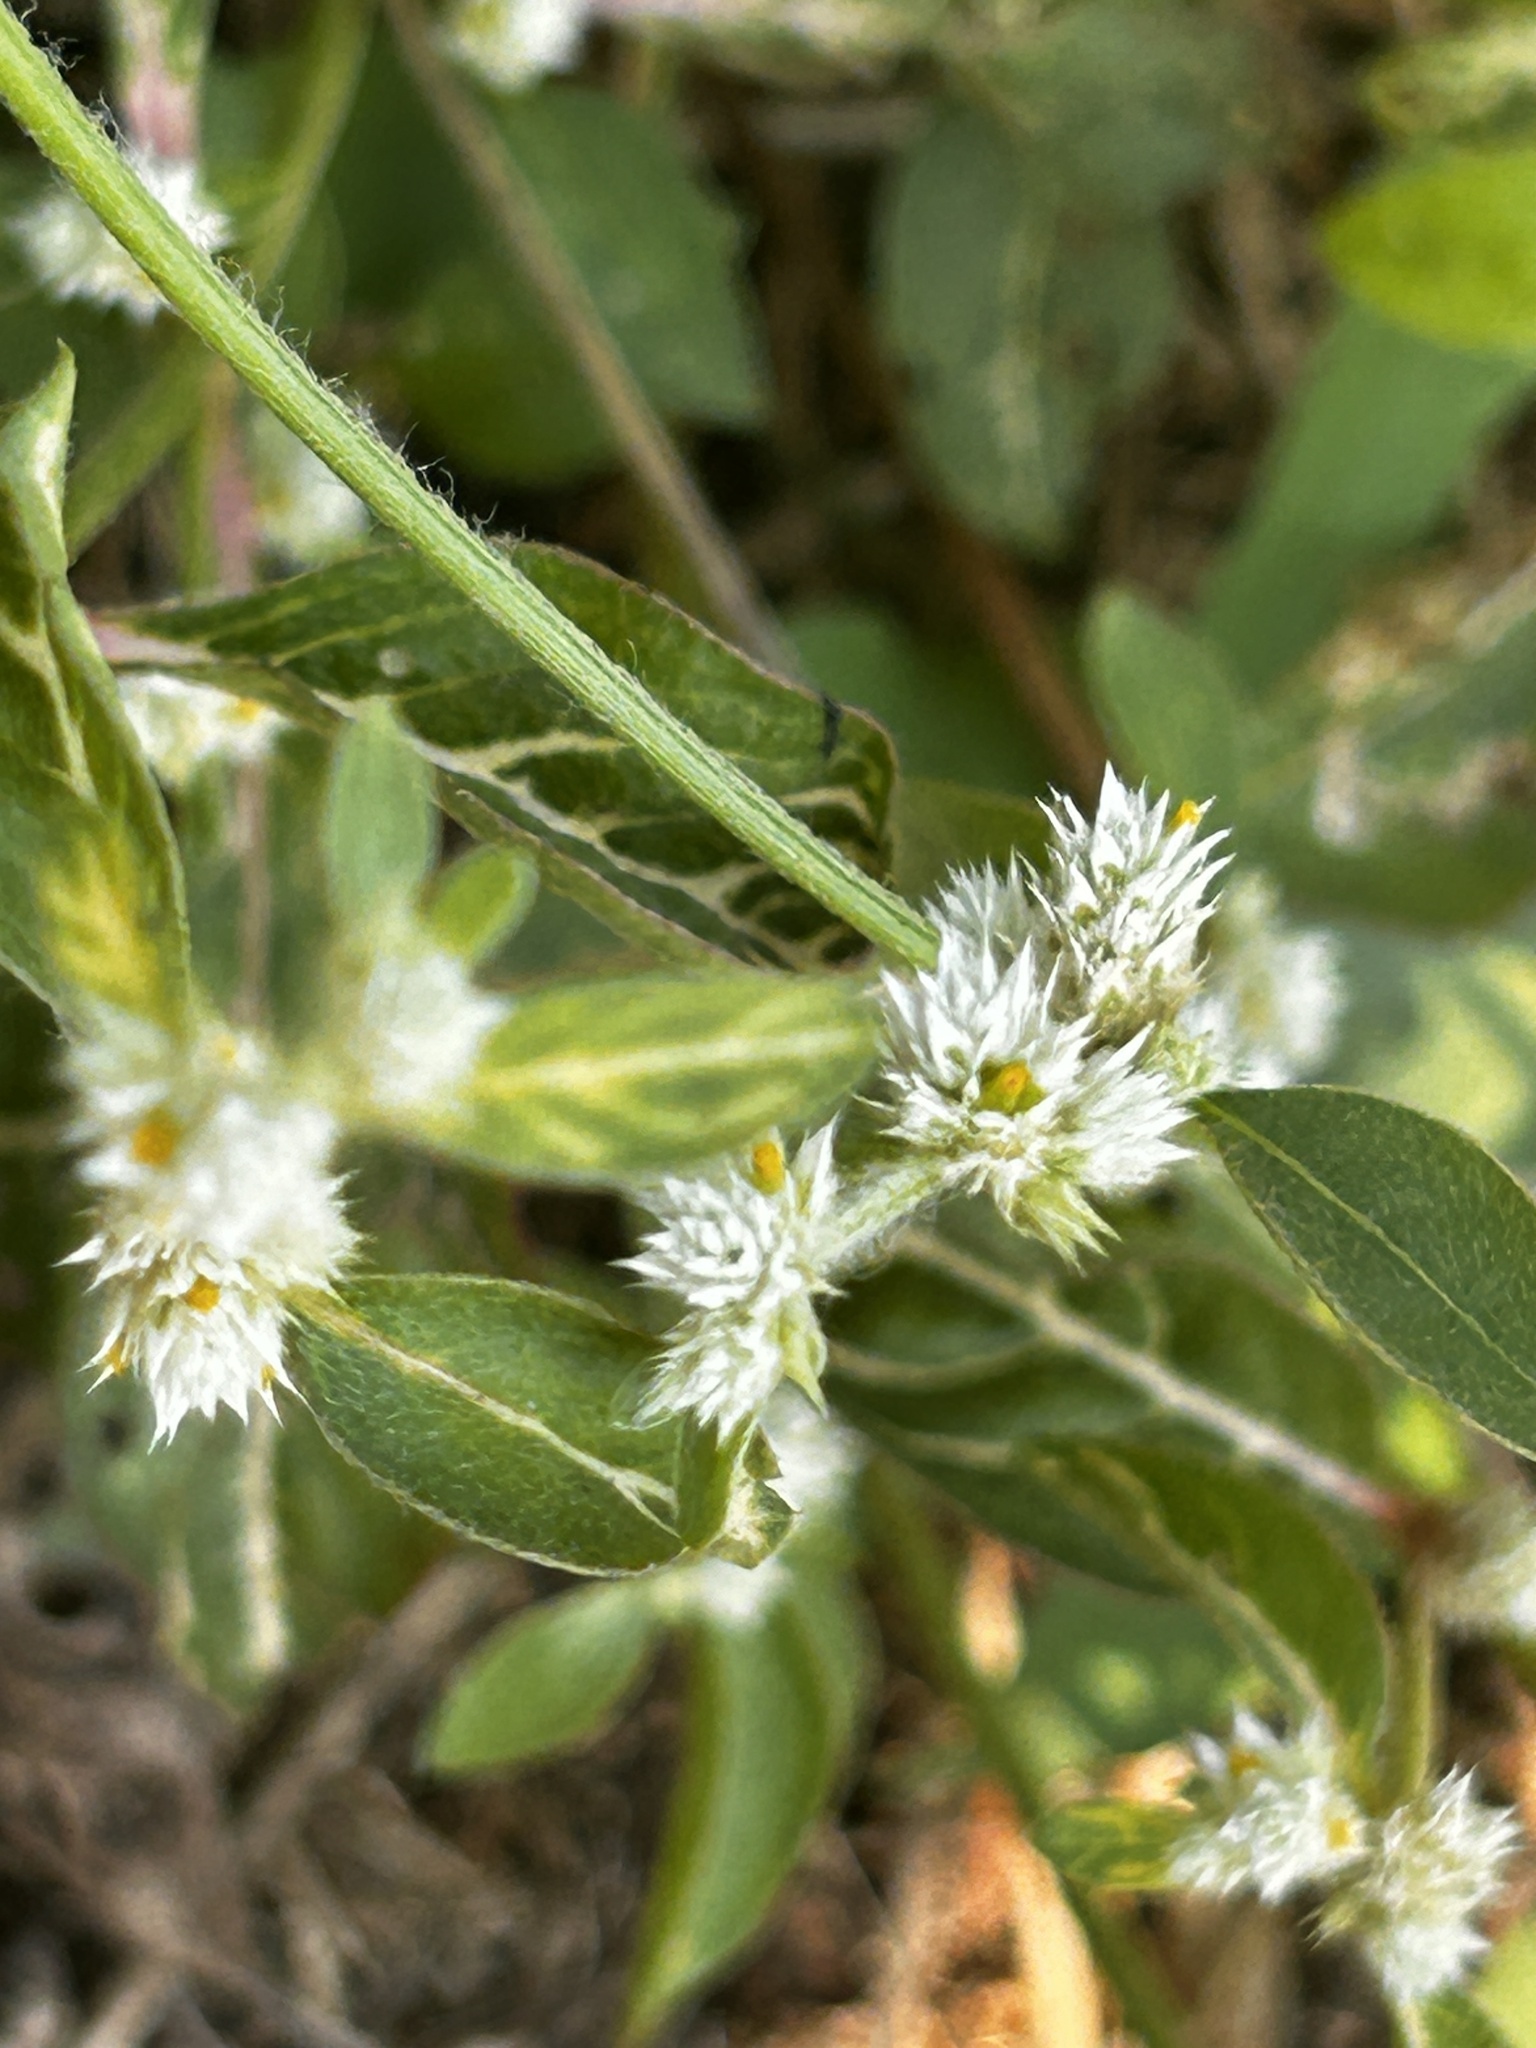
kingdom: Plantae
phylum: Tracheophyta
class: Magnoliopsida
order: Caryophyllales
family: Amaranthaceae
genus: Alternanthera
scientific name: Alternanthera ficoidea
